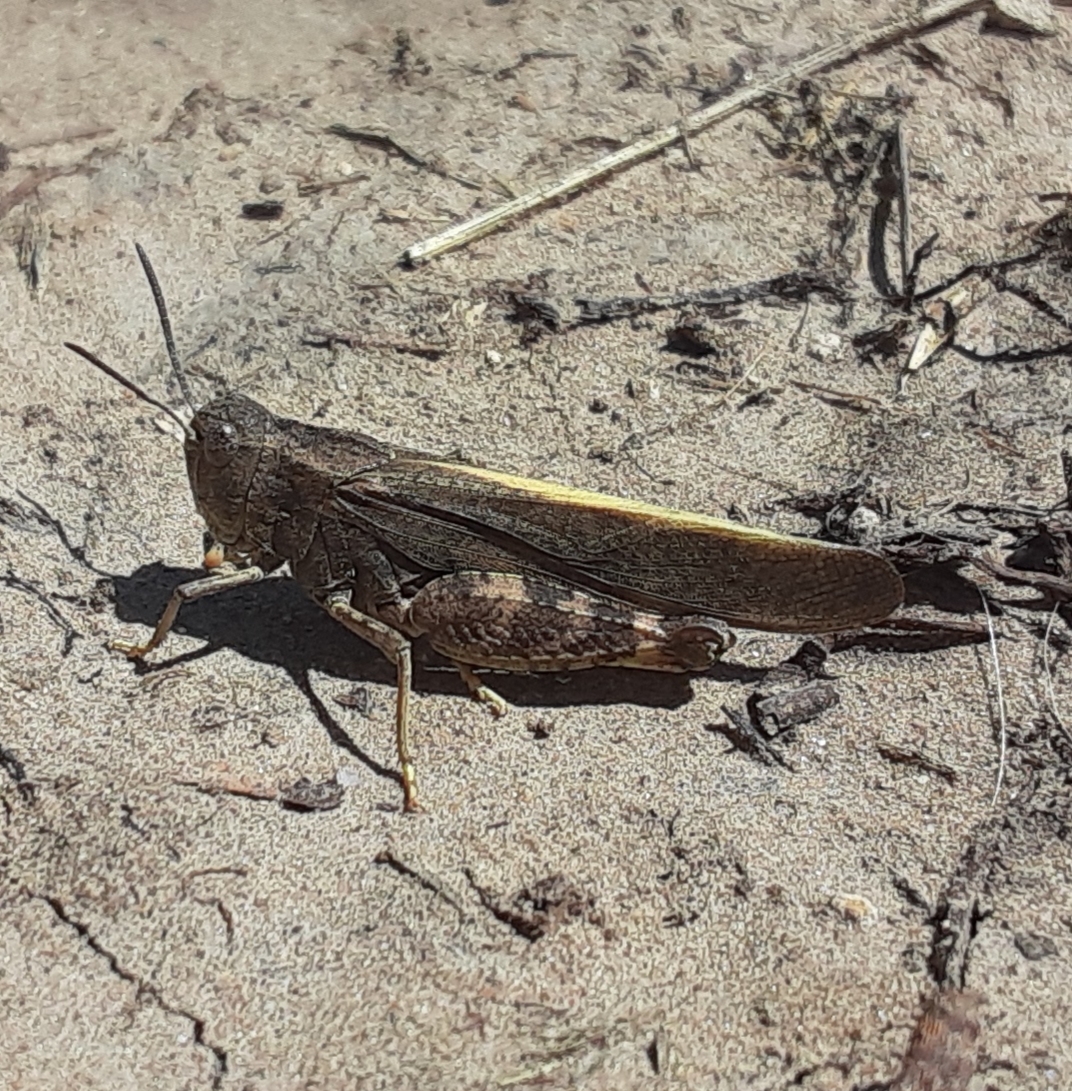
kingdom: Animalia
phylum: Arthropoda
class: Insecta
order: Orthoptera
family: Acrididae
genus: Arphia
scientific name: Arphia conspersa
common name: Speckle-winged rangeland grasshopper
